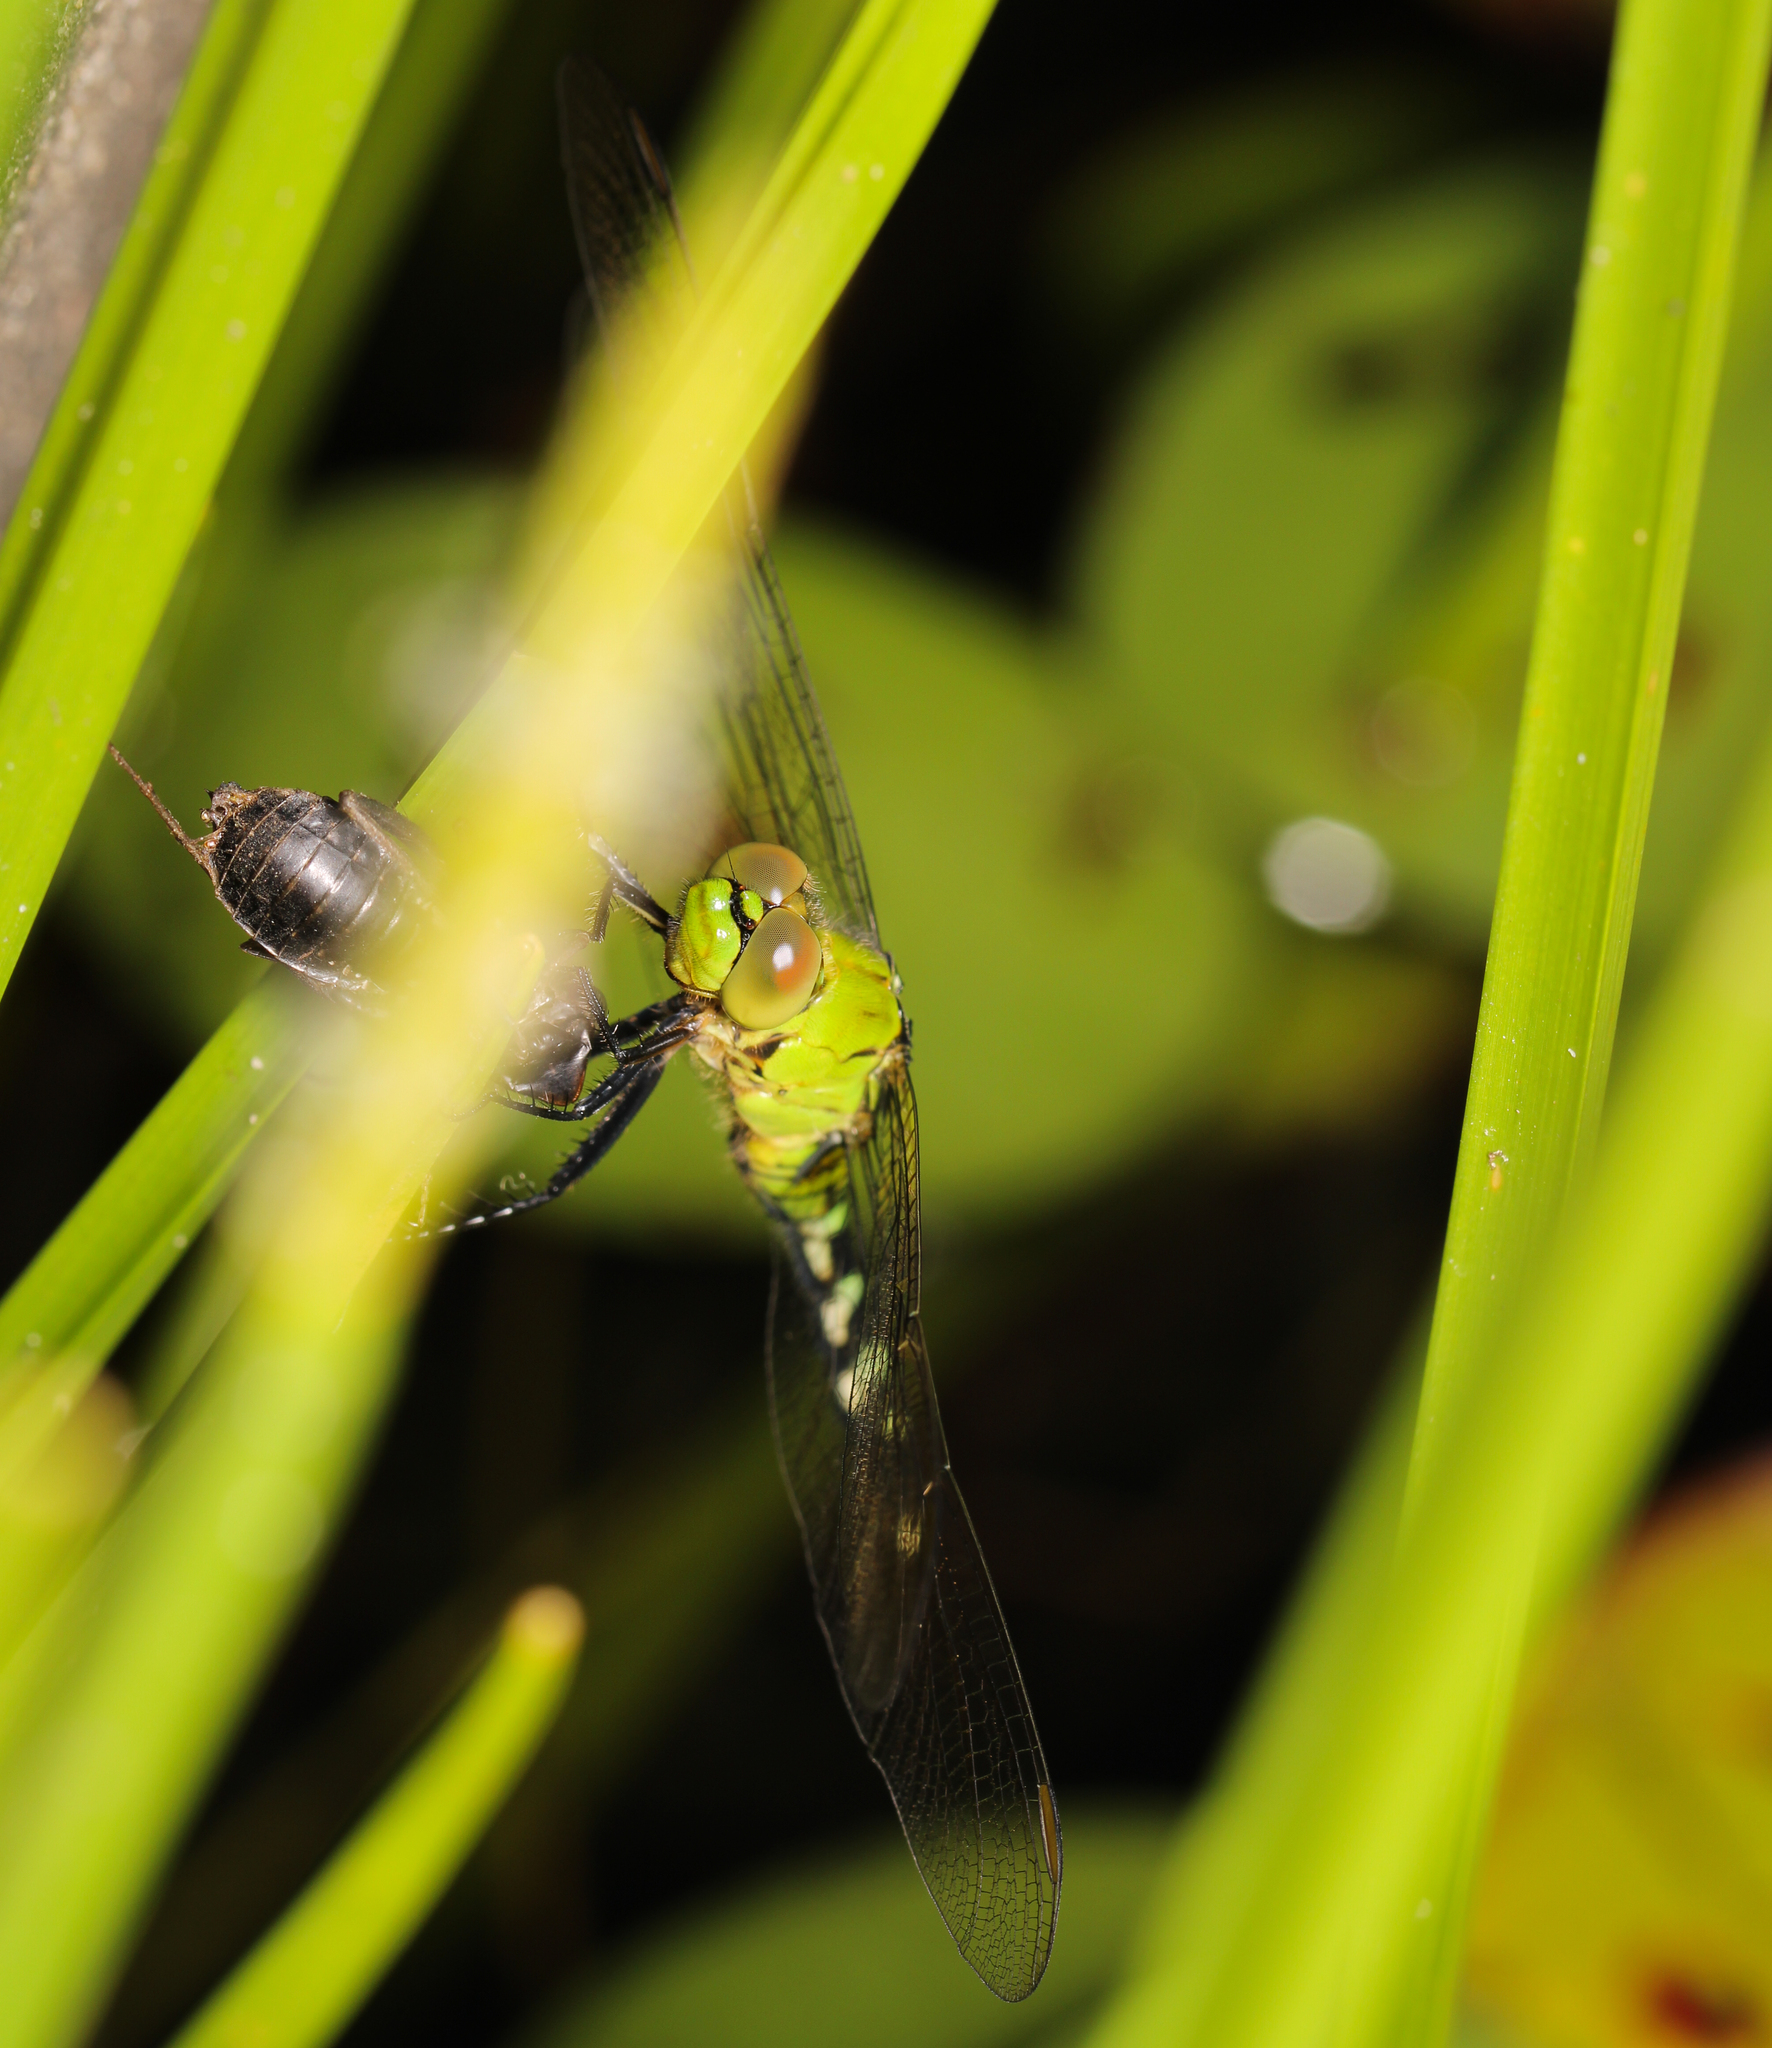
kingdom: Animalia
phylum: Arthropoda
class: Insecta
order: Odonata
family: Libellulidae
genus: Erythemis
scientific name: Erythemis simplicicollis
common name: Eastern pondhawk
